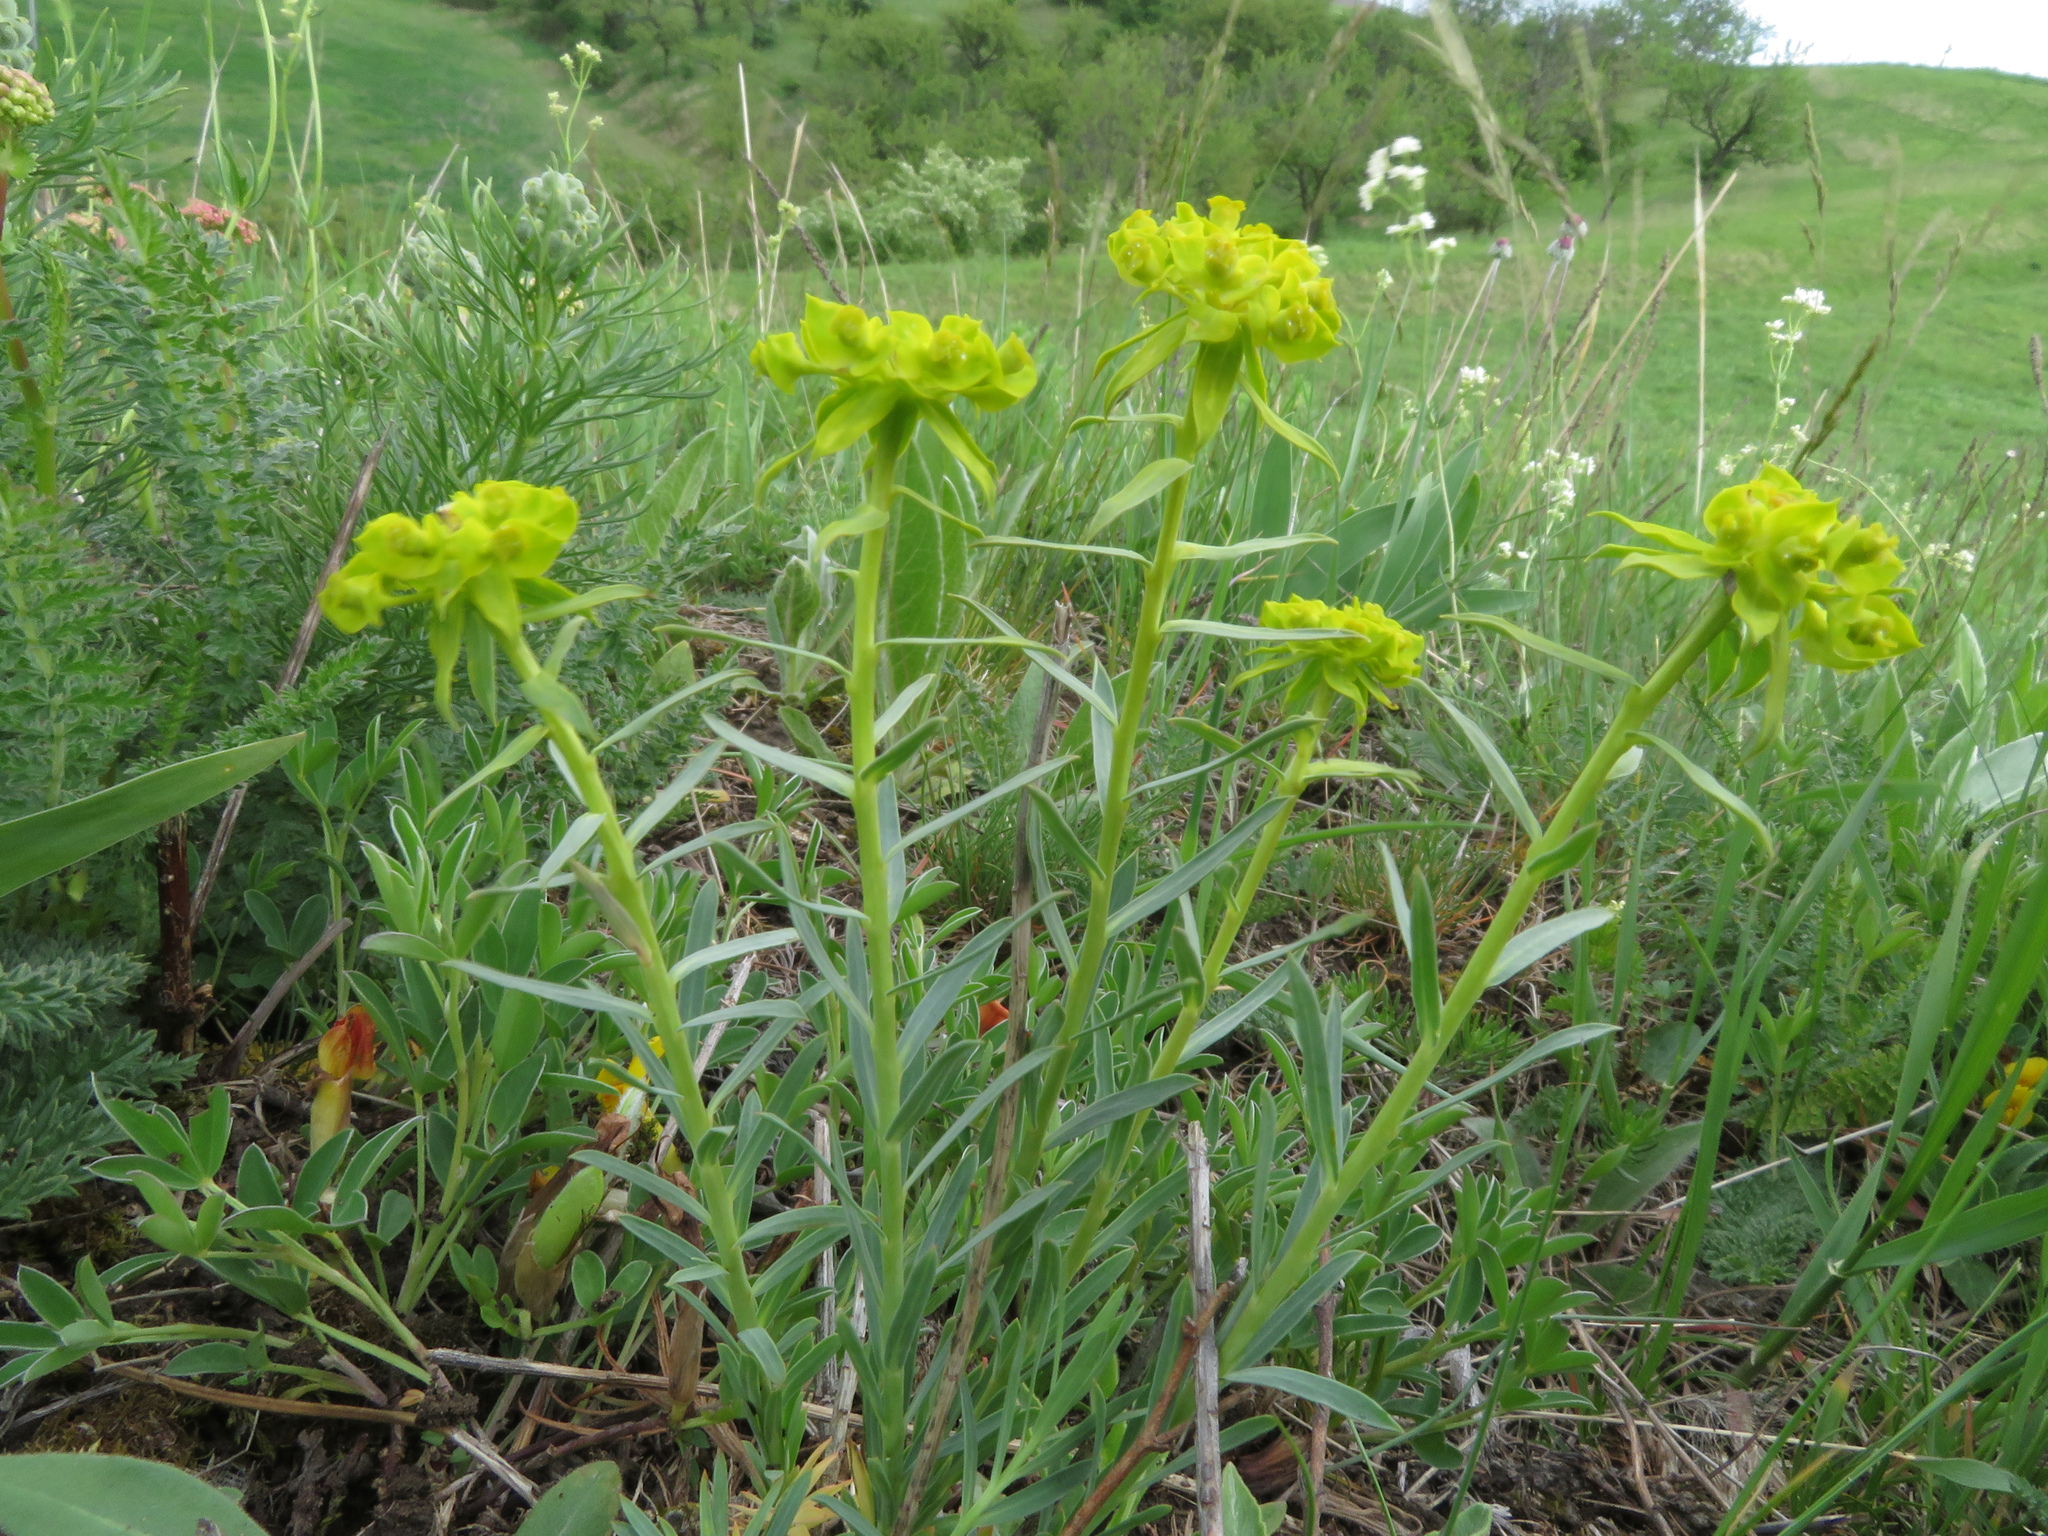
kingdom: Plantae
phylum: Tracheophyta
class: Magnoliopsida
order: Malpighiales
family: Euphorbiaceae
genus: Euphorbia
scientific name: Euphorbia seguieriana
